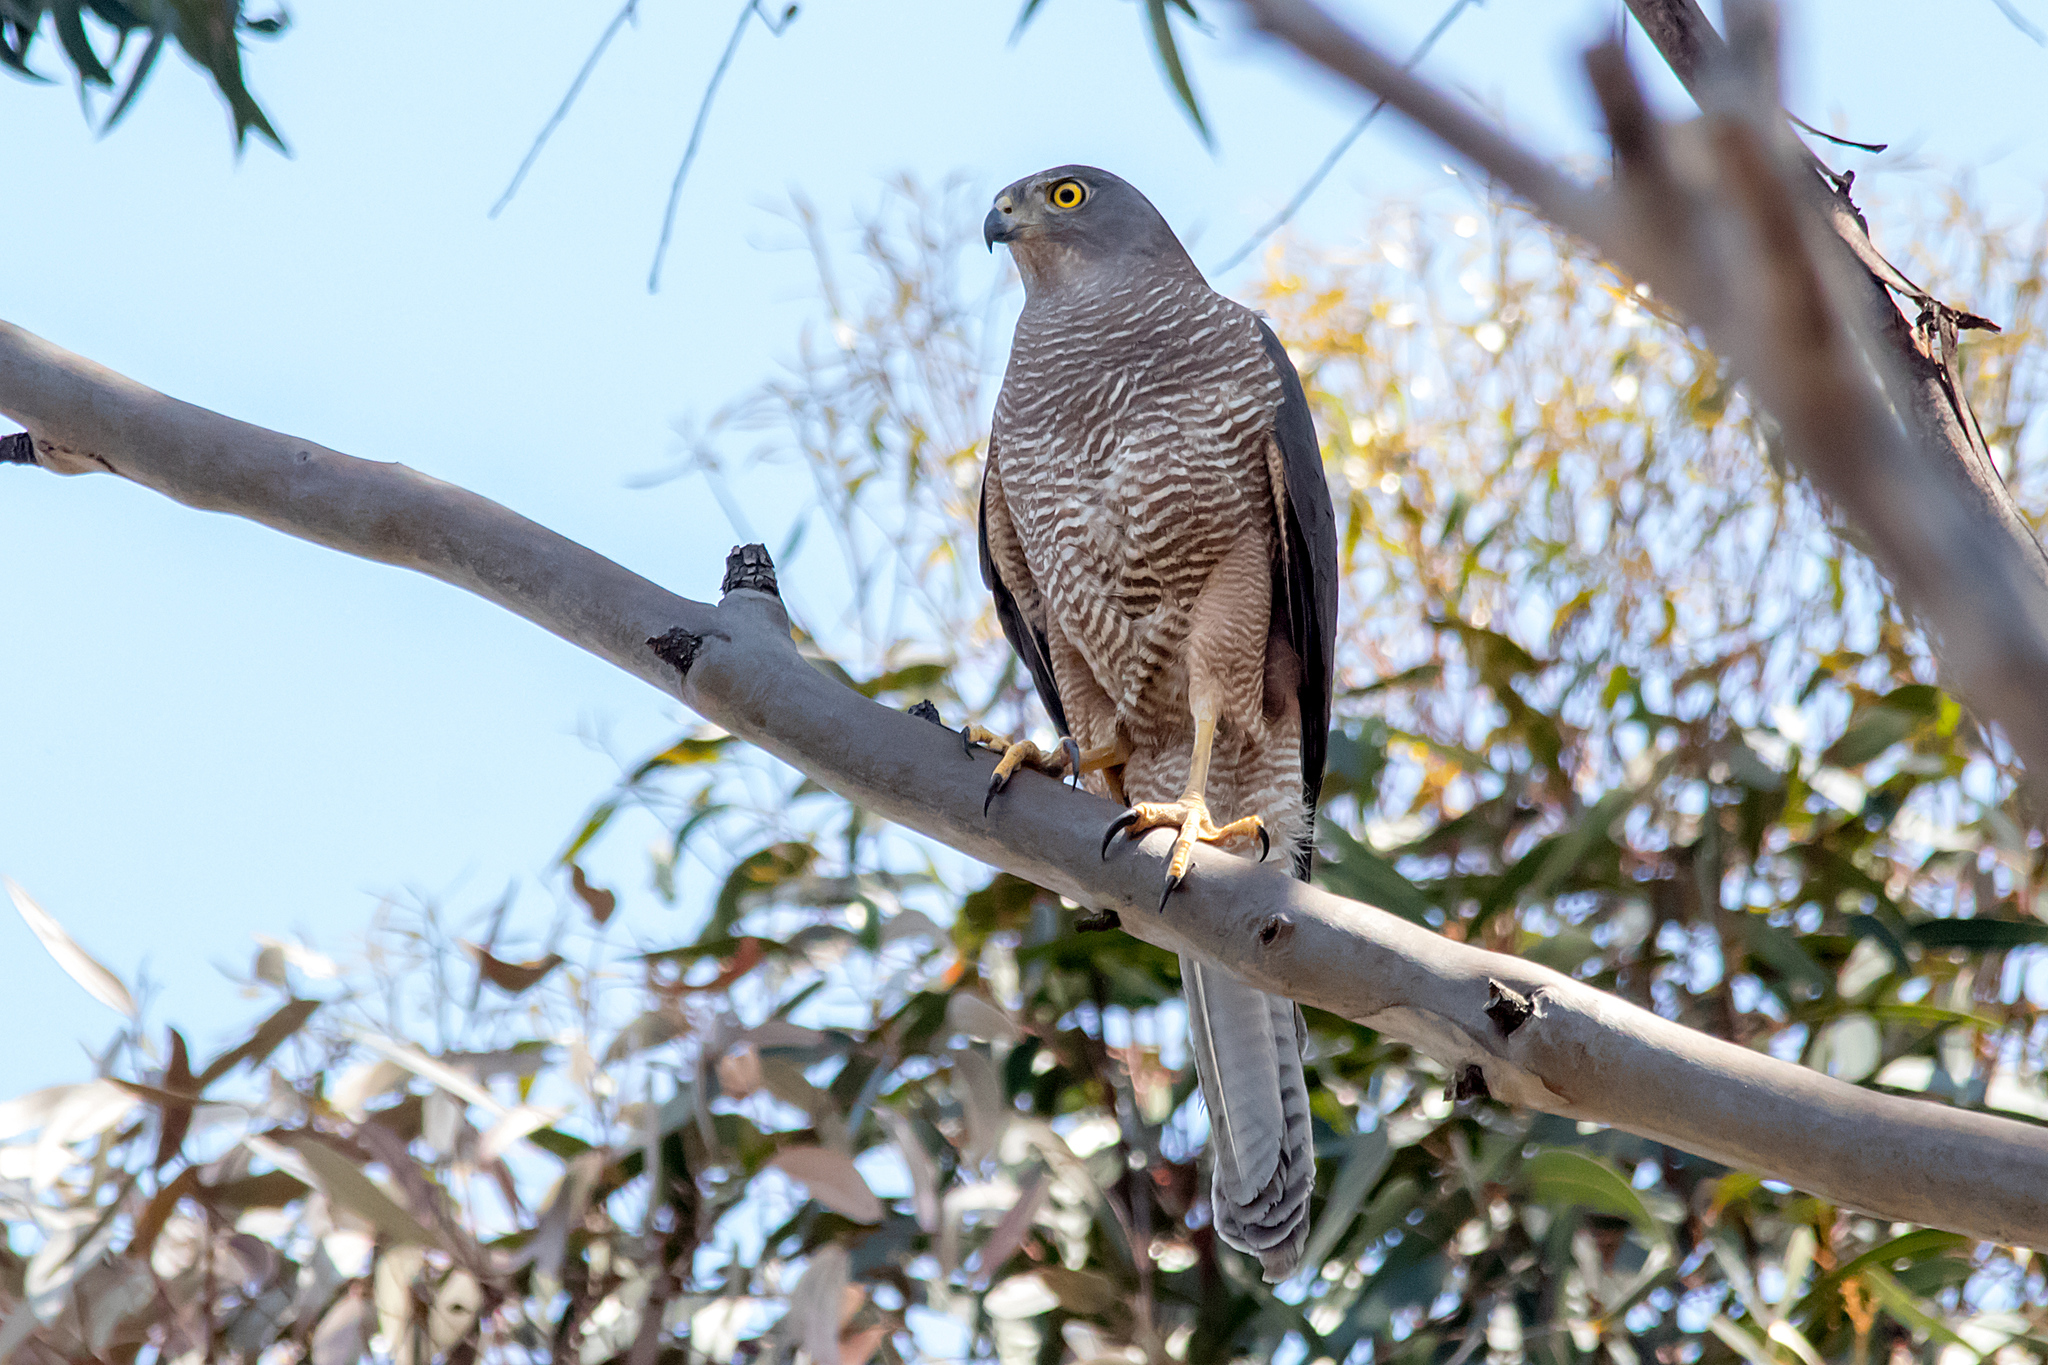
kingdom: Animalia
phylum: Chordata
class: Aves
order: Accipitriformes
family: Accipitridae
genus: Accipiter
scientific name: Accipiter fasciatus
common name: Brown goshawk
